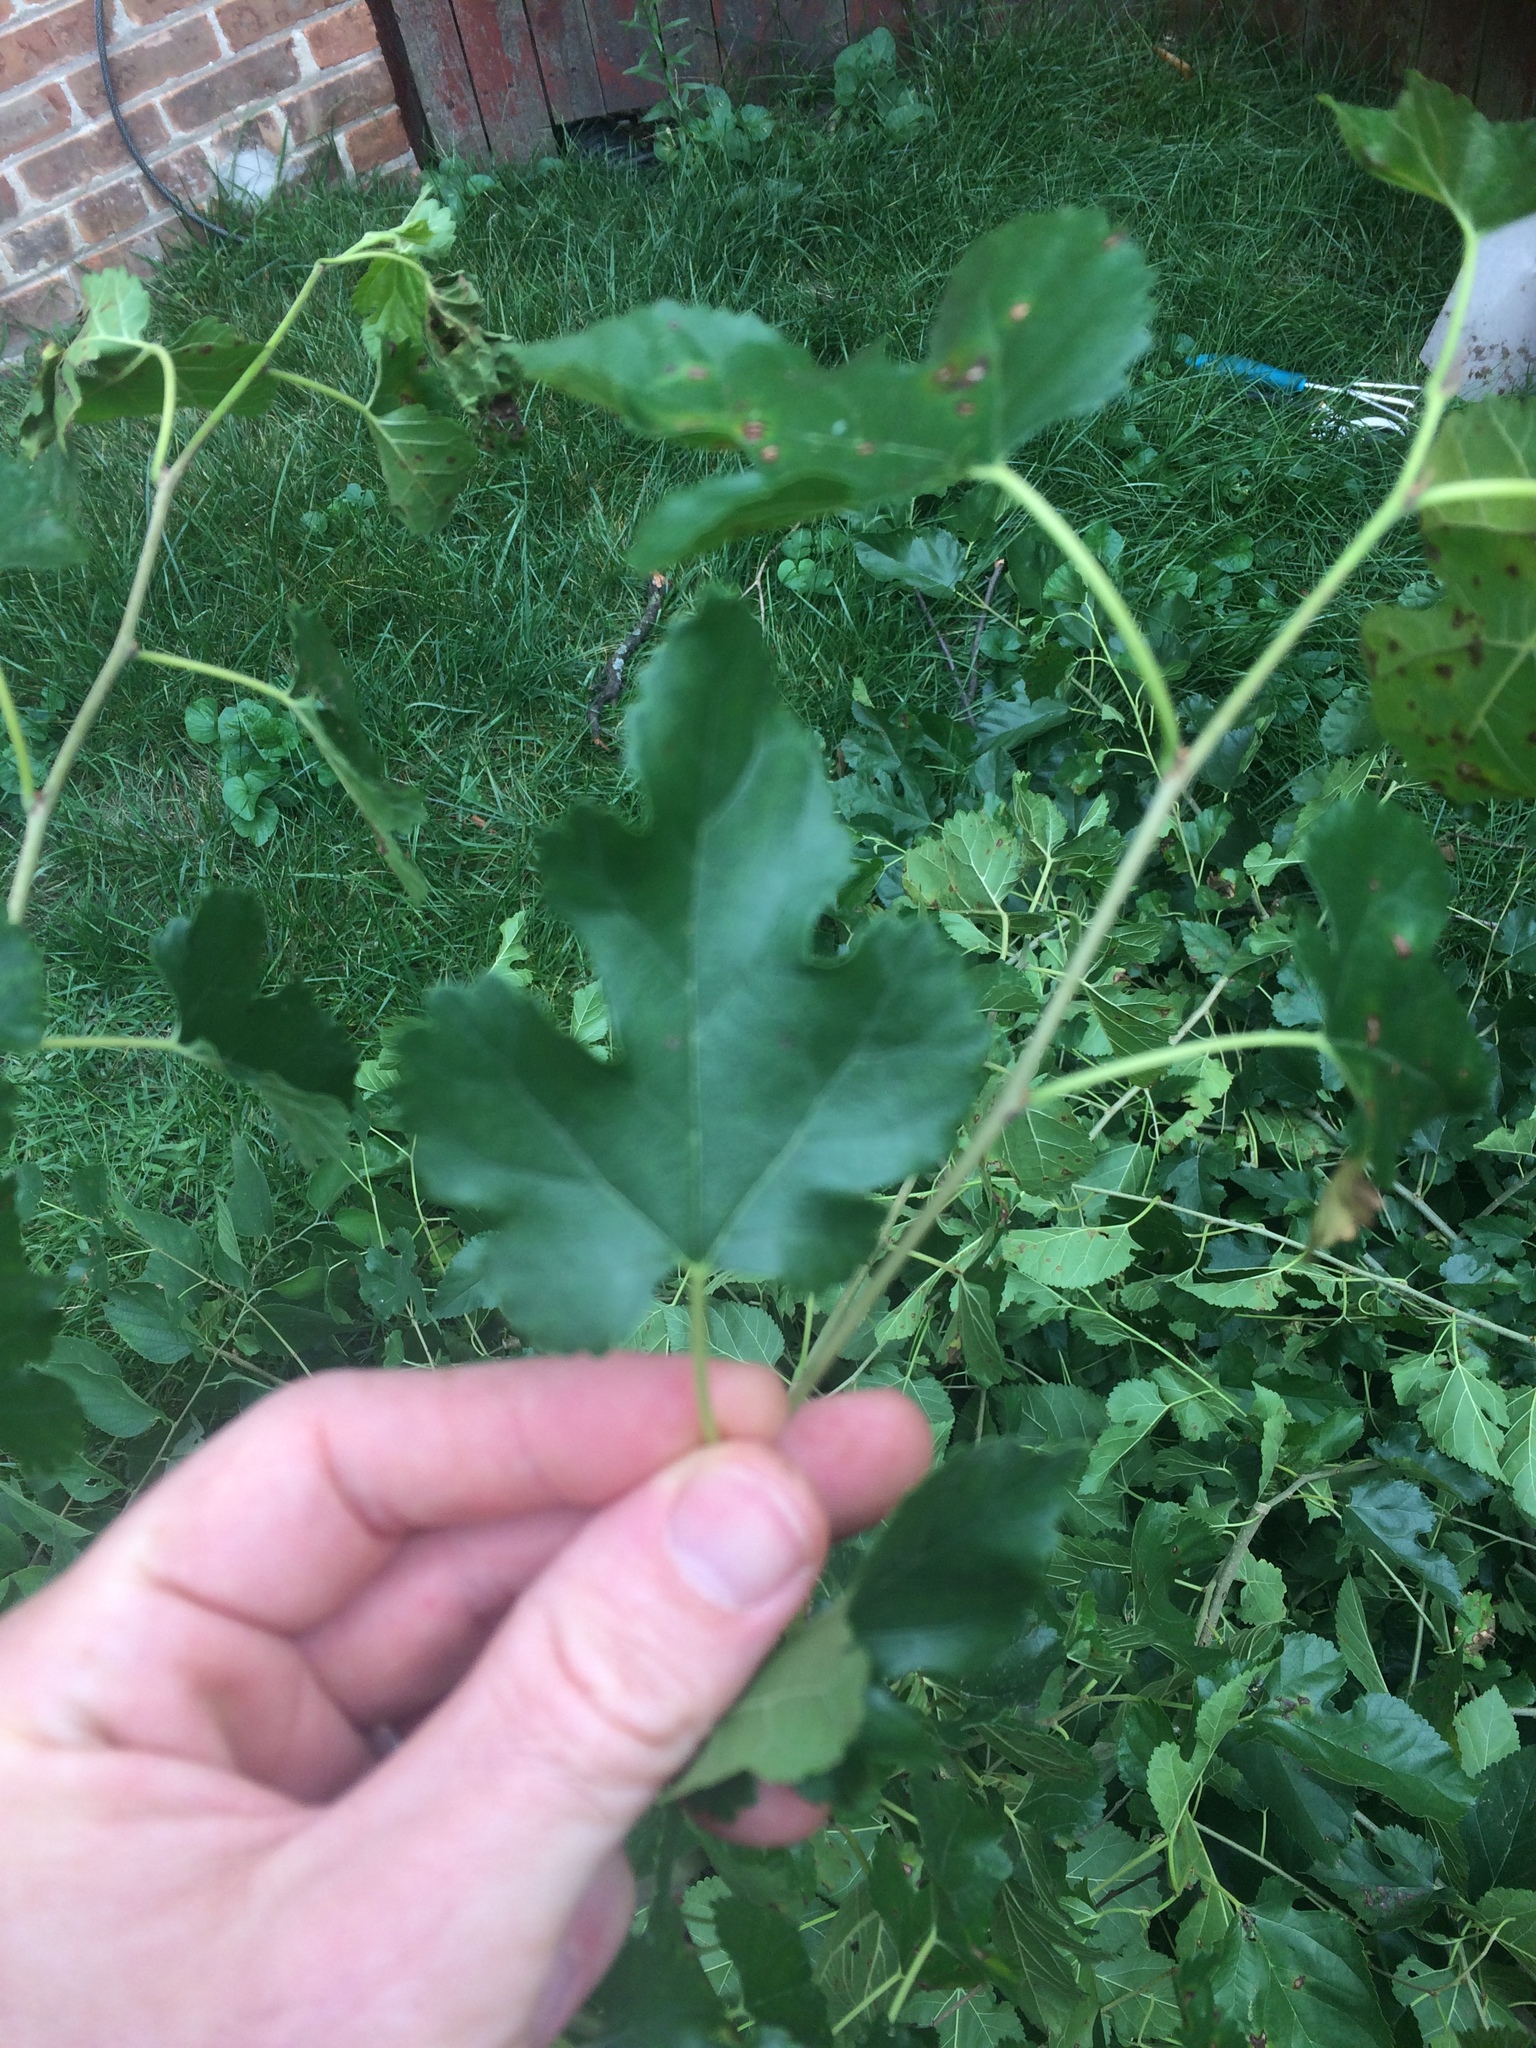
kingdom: Plantae
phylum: Tracheophyta
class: Magnoliopsida
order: Rosales
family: Moraceae
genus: Morus
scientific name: Morus alba
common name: White mulberry
